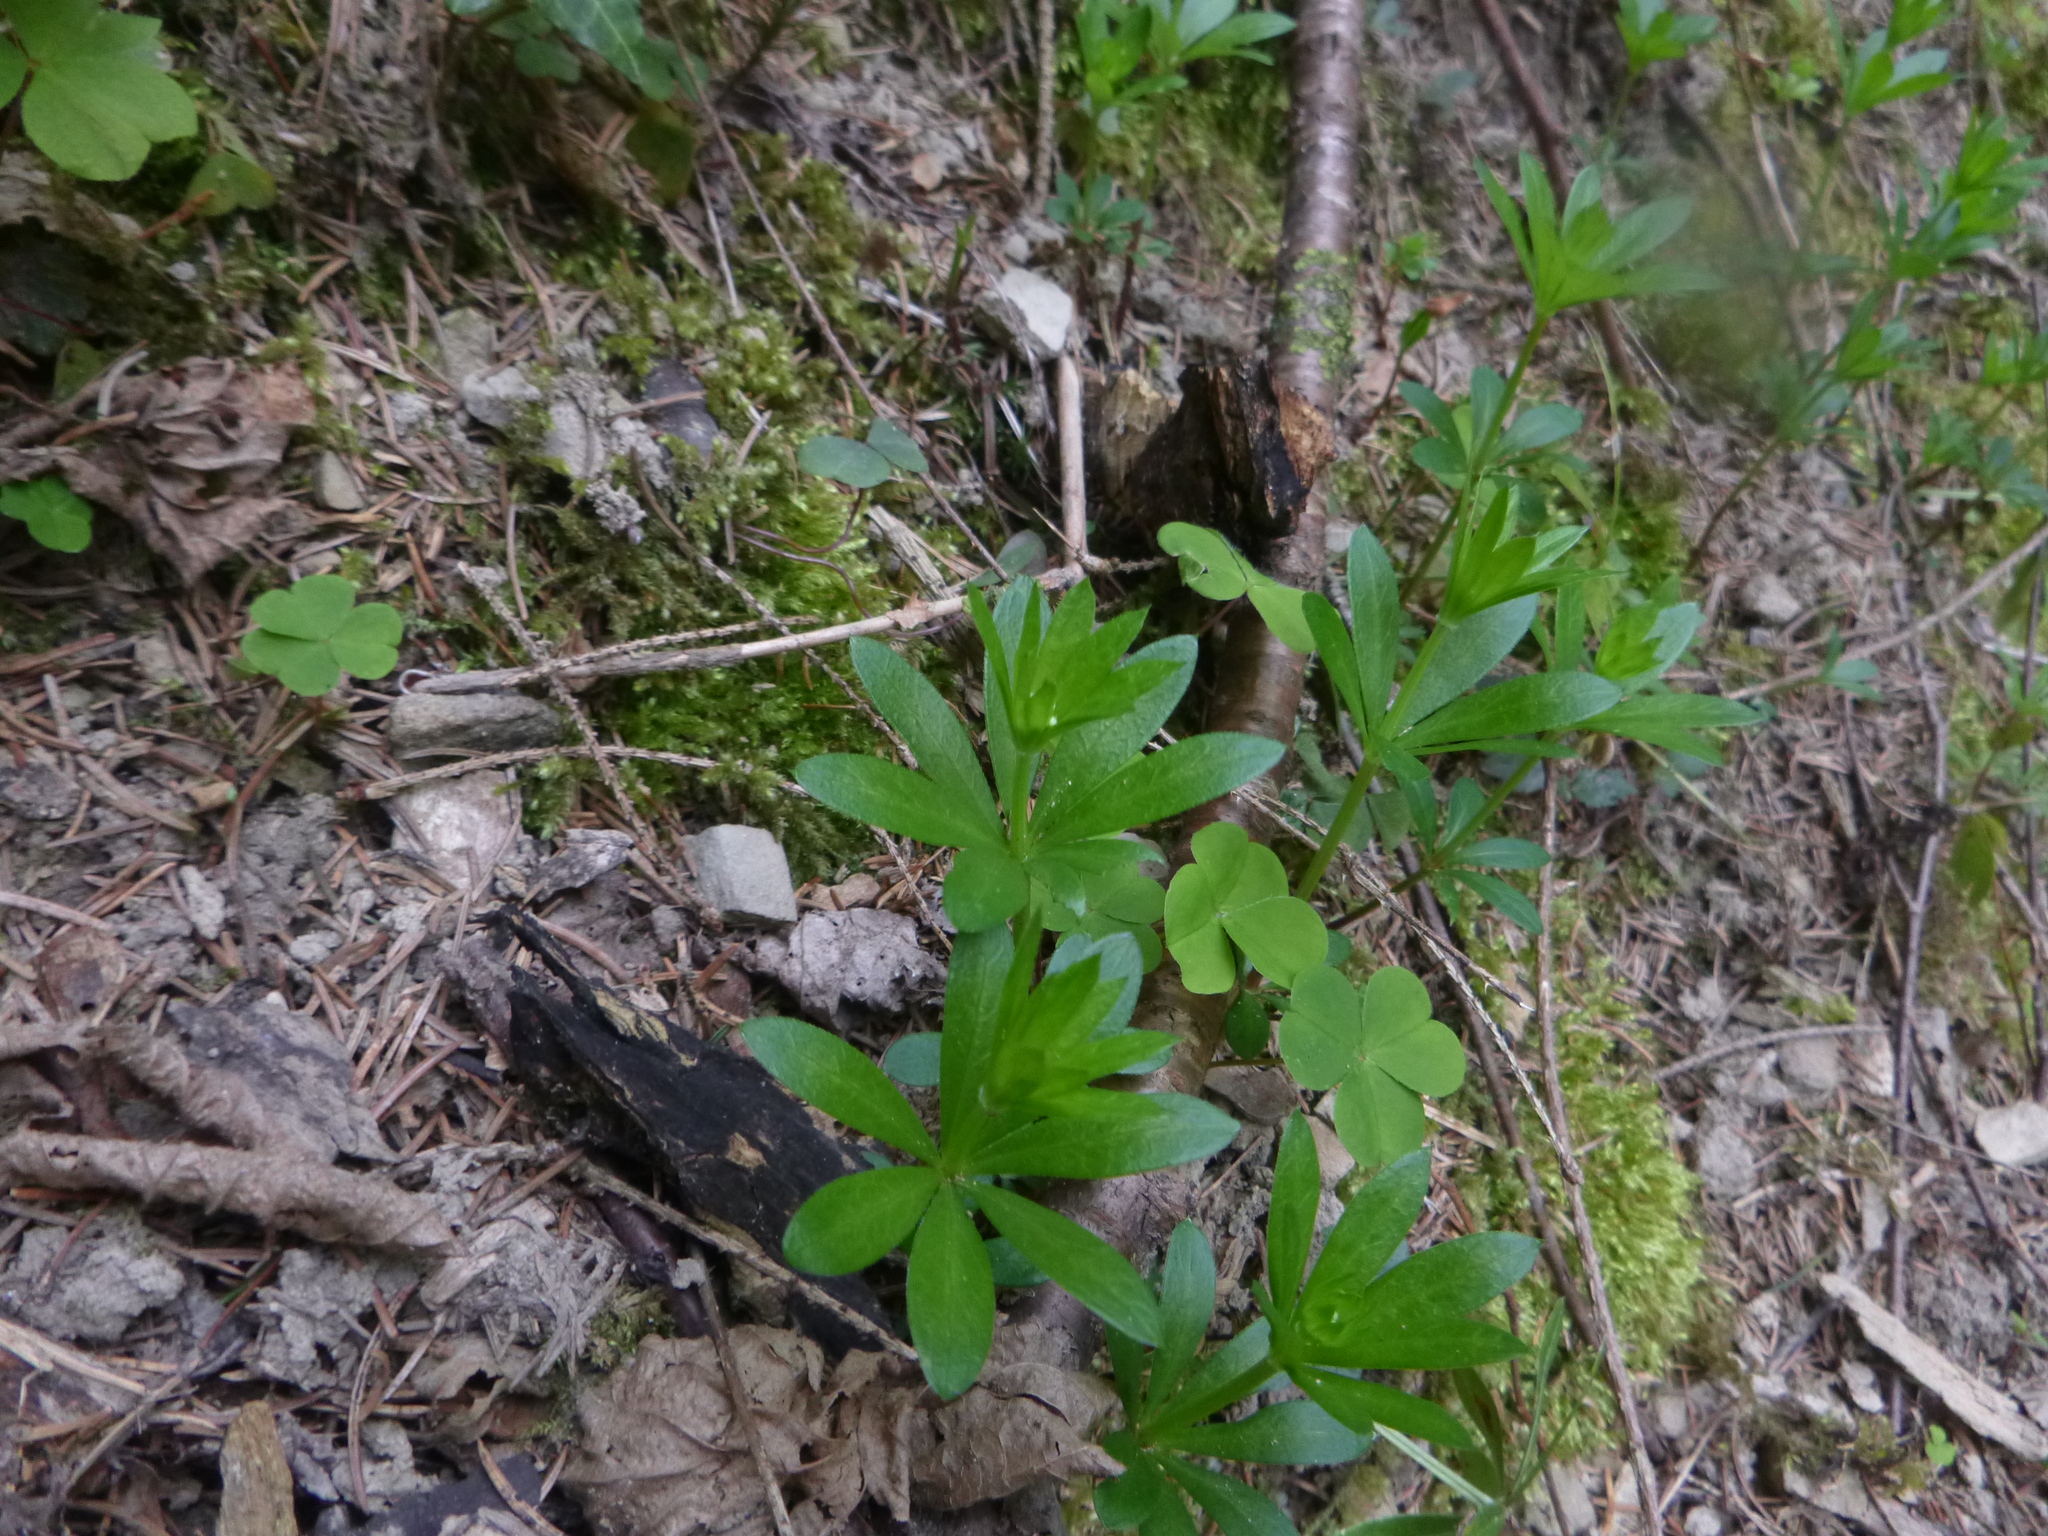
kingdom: Plantae
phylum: Tracheophyta
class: Magnoliopsida
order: Gentianales
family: Rubiaceae
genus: Galium
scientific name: Galium odoratum
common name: Sweet woodruff
